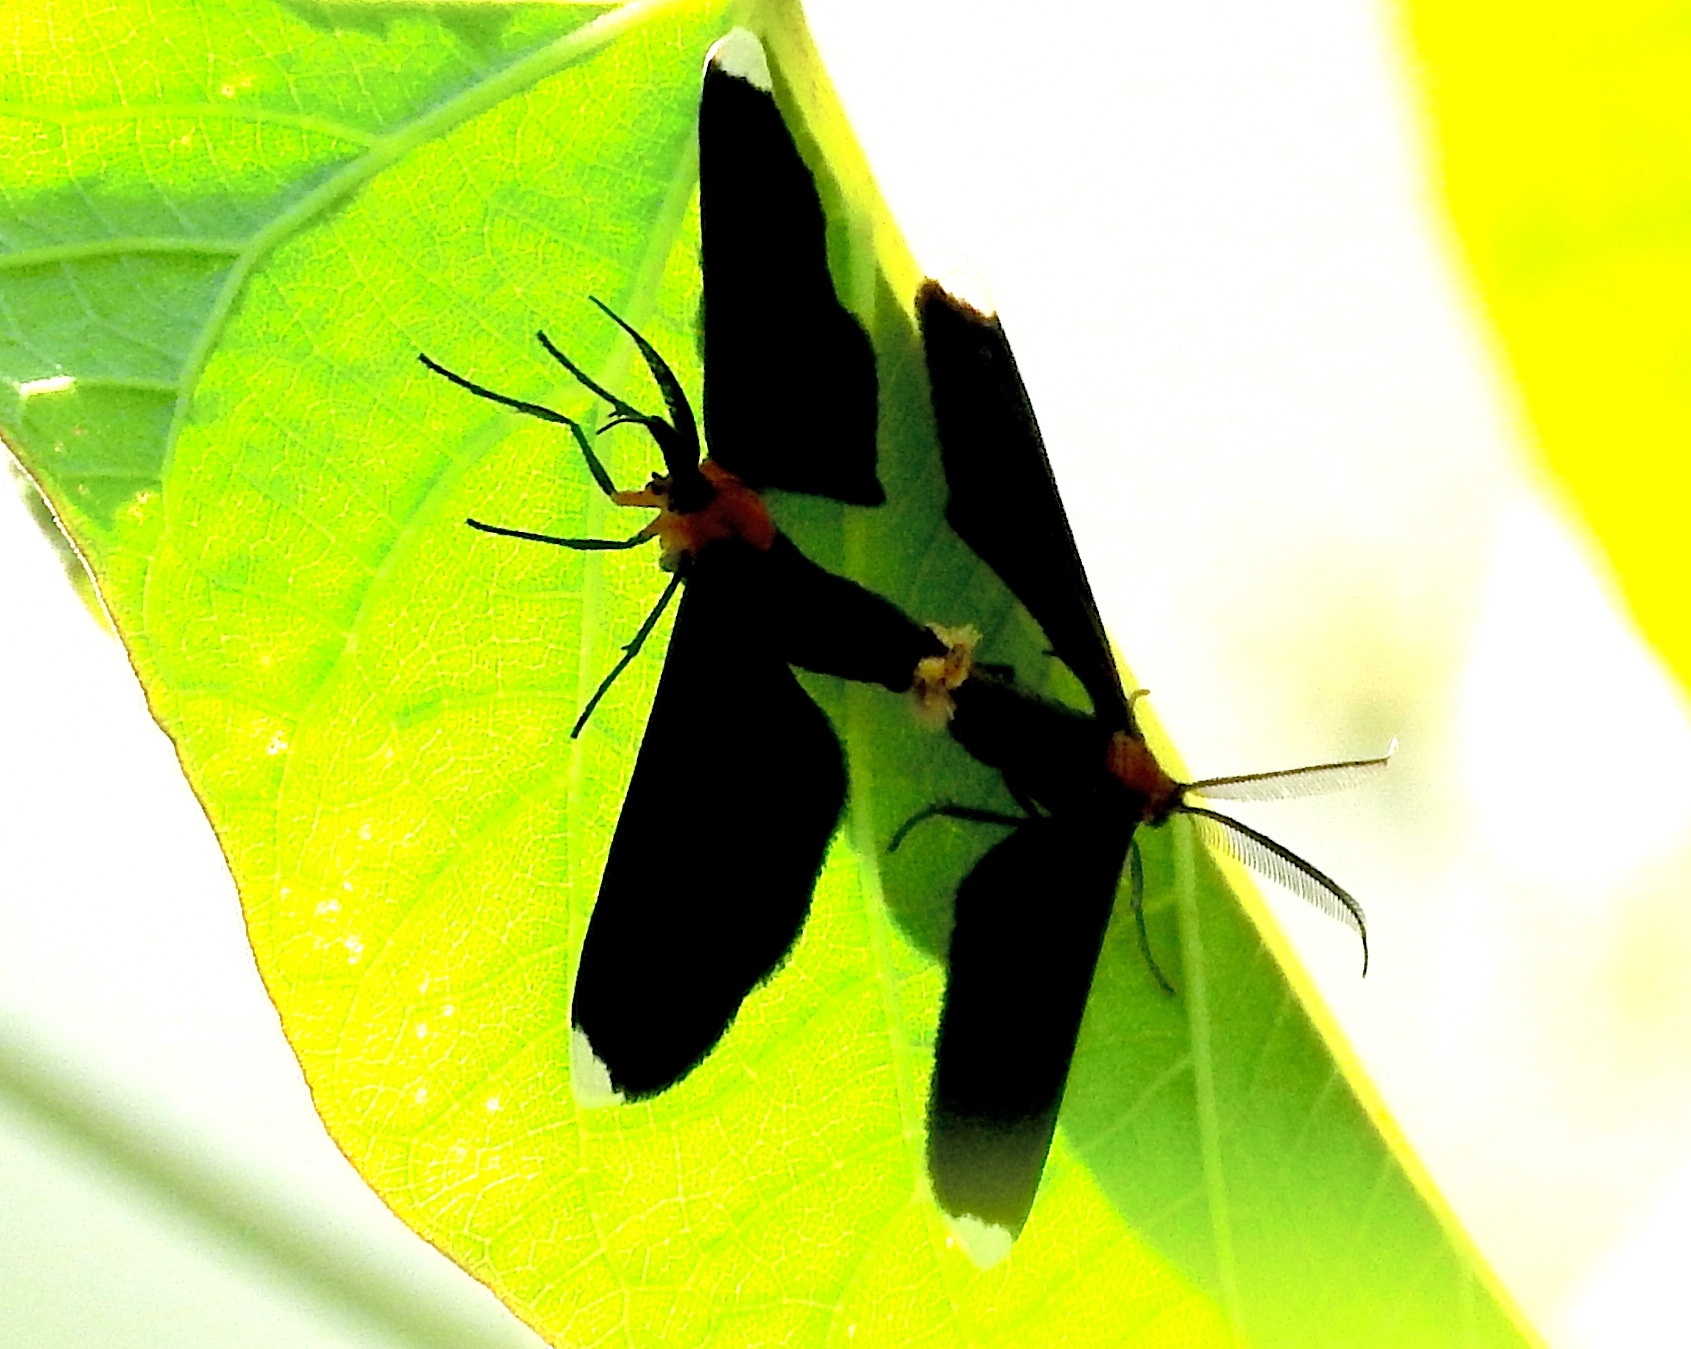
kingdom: Animalia
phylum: Arthropoda
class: Insecta
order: Lepidoptera
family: Geometridae
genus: Melanchroia
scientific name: Melanchroia chephise
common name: White-tipped black
